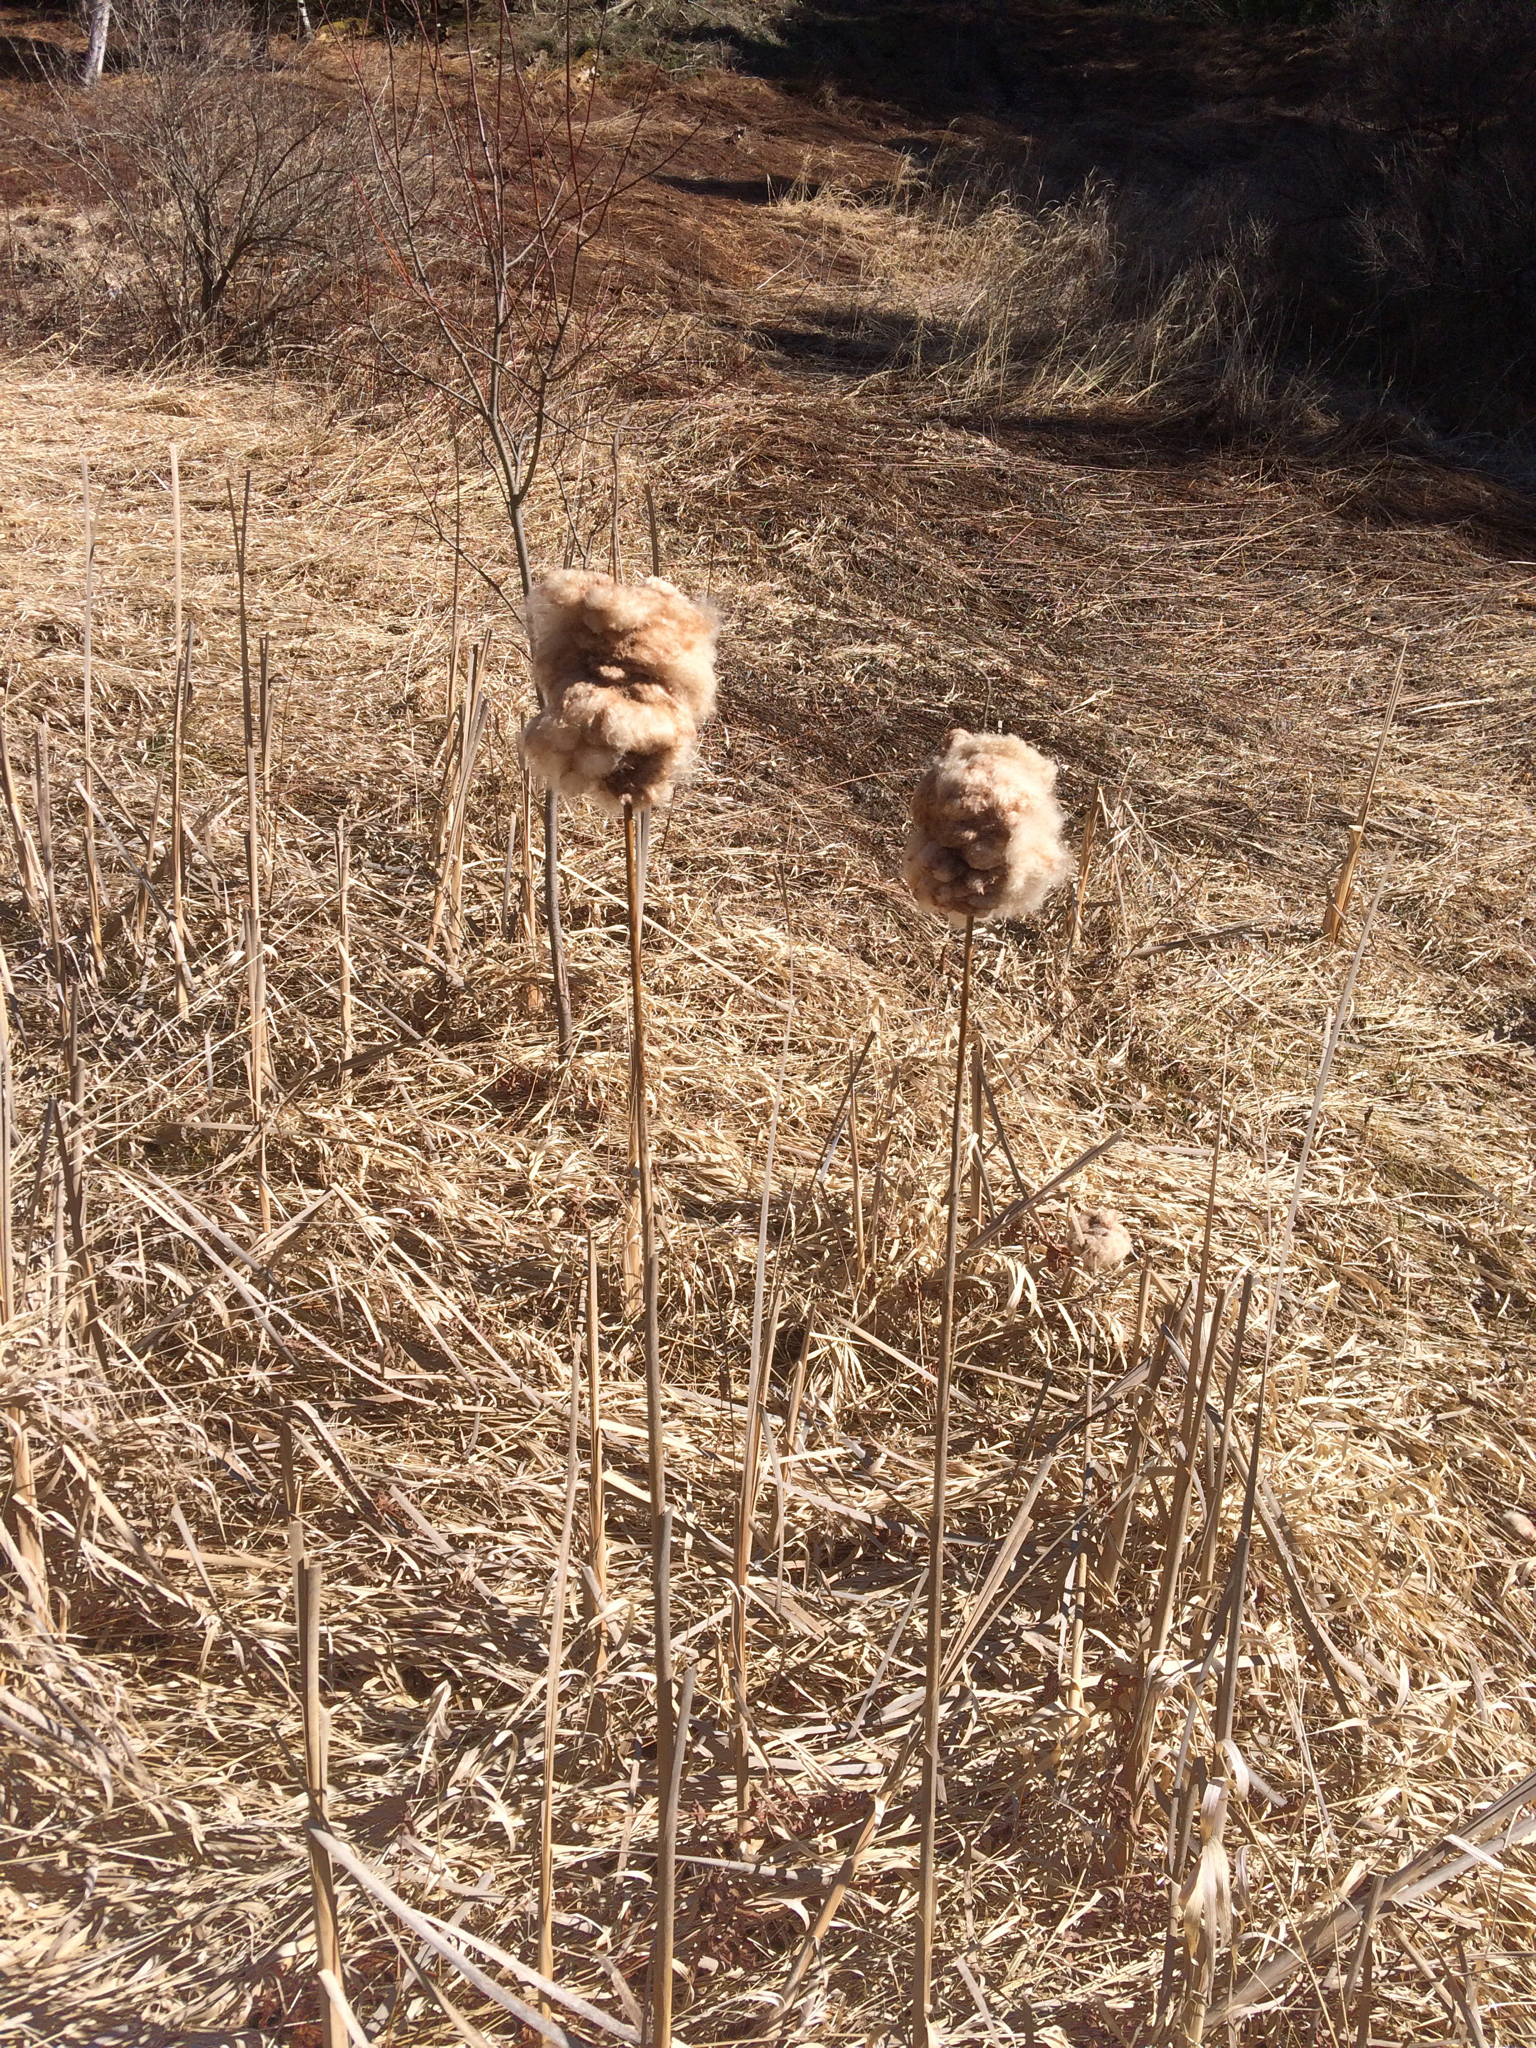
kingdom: Plantae
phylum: Tracheophyta
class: Liliopsida
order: Poales
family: Typhaceae
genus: Typha
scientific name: Typha
